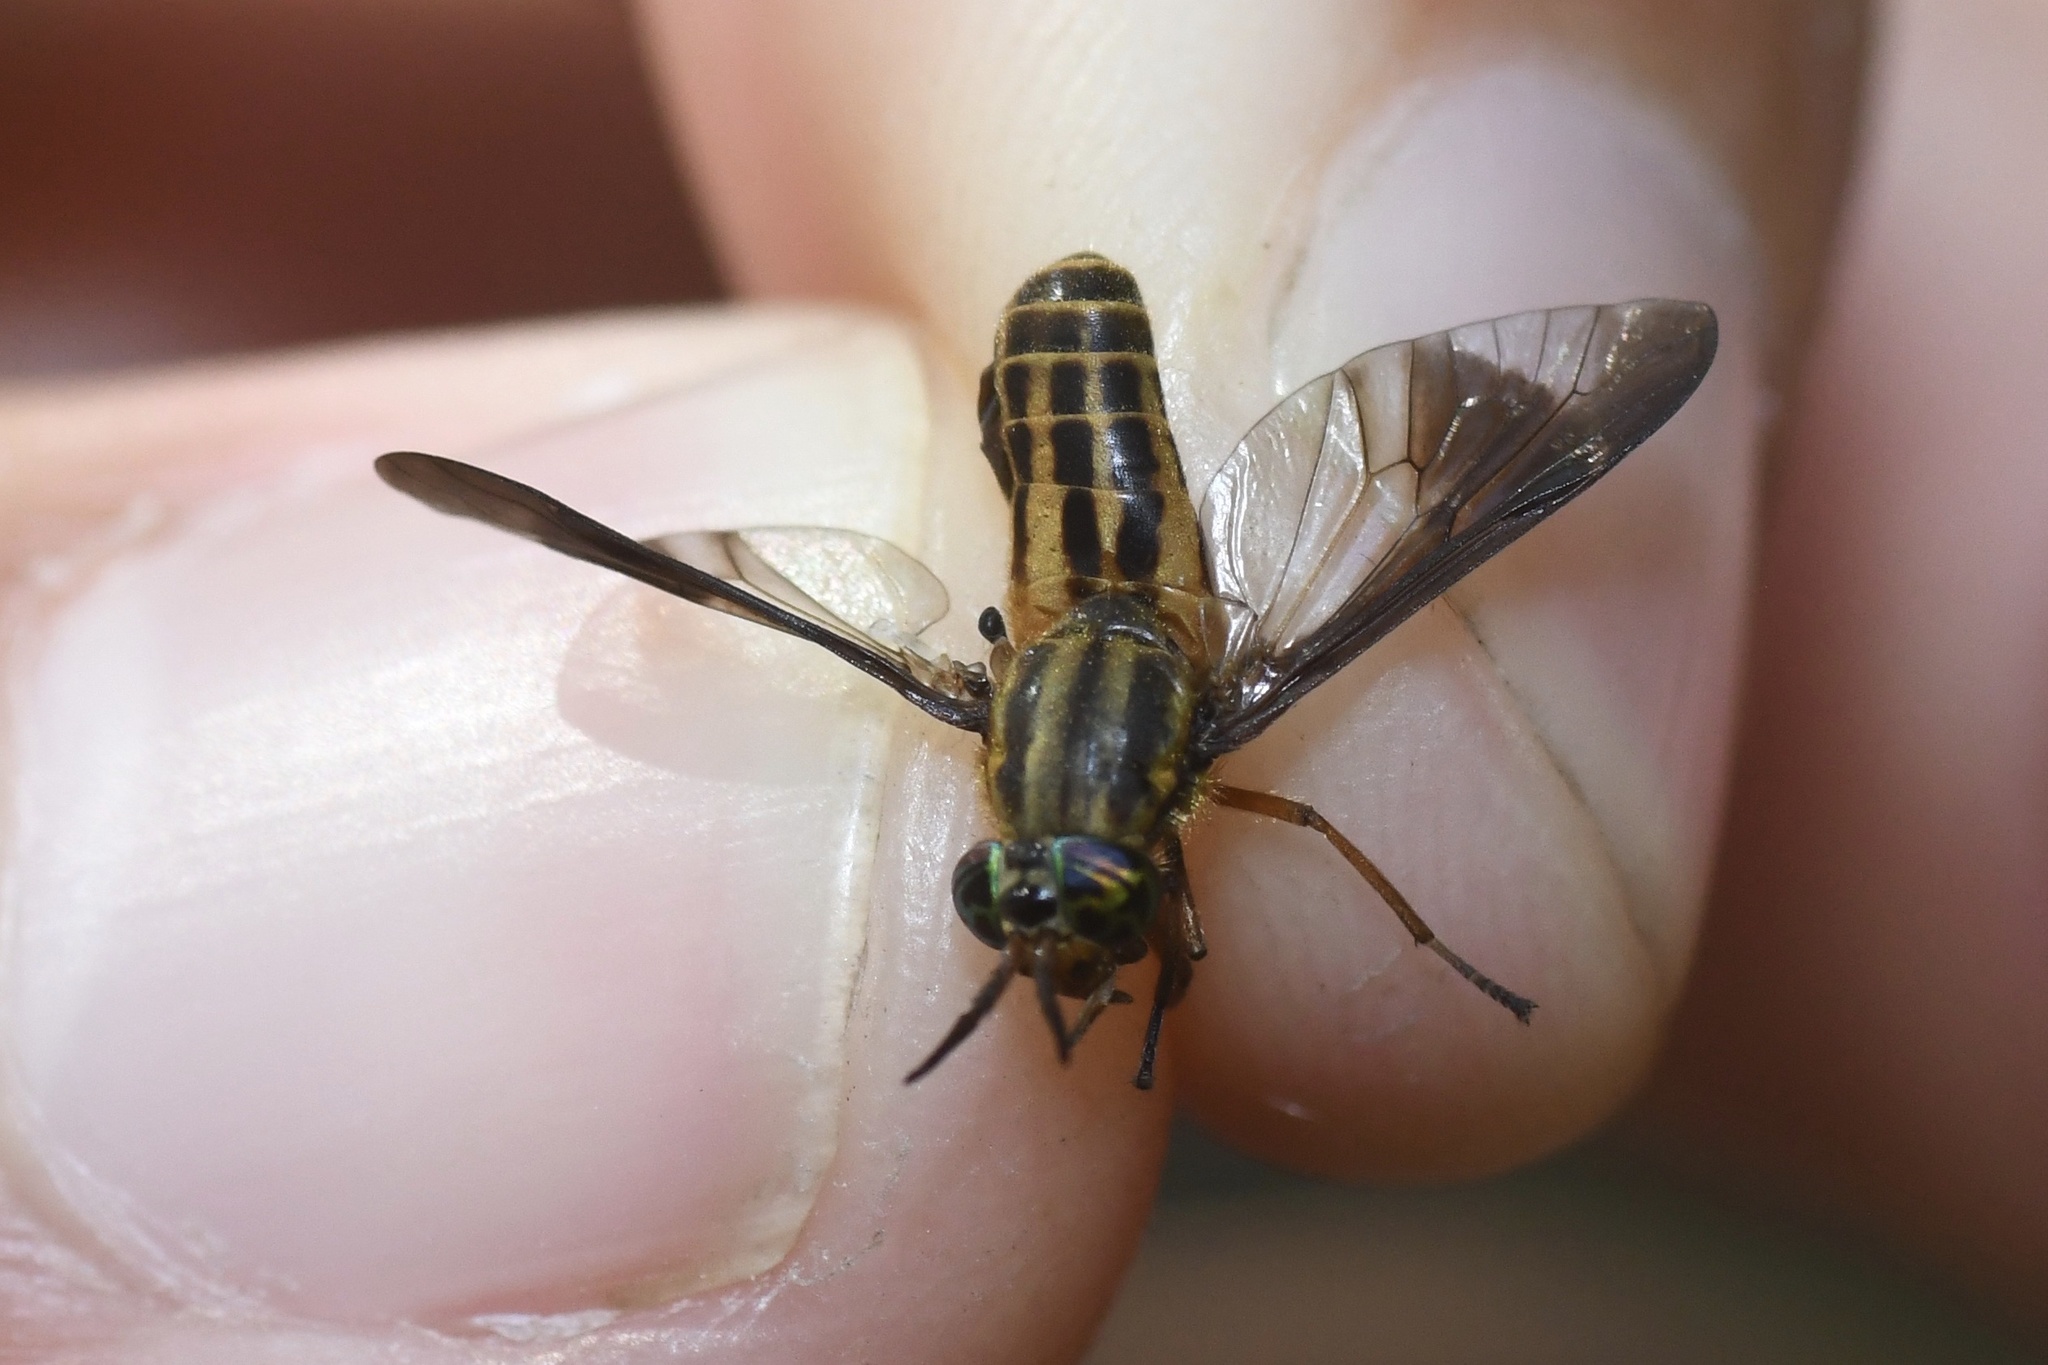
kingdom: Animalia
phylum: Arthropoda
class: Insecta
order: Diptera
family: Tabanidae
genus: Chrysops
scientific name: Chrysops aberrans
